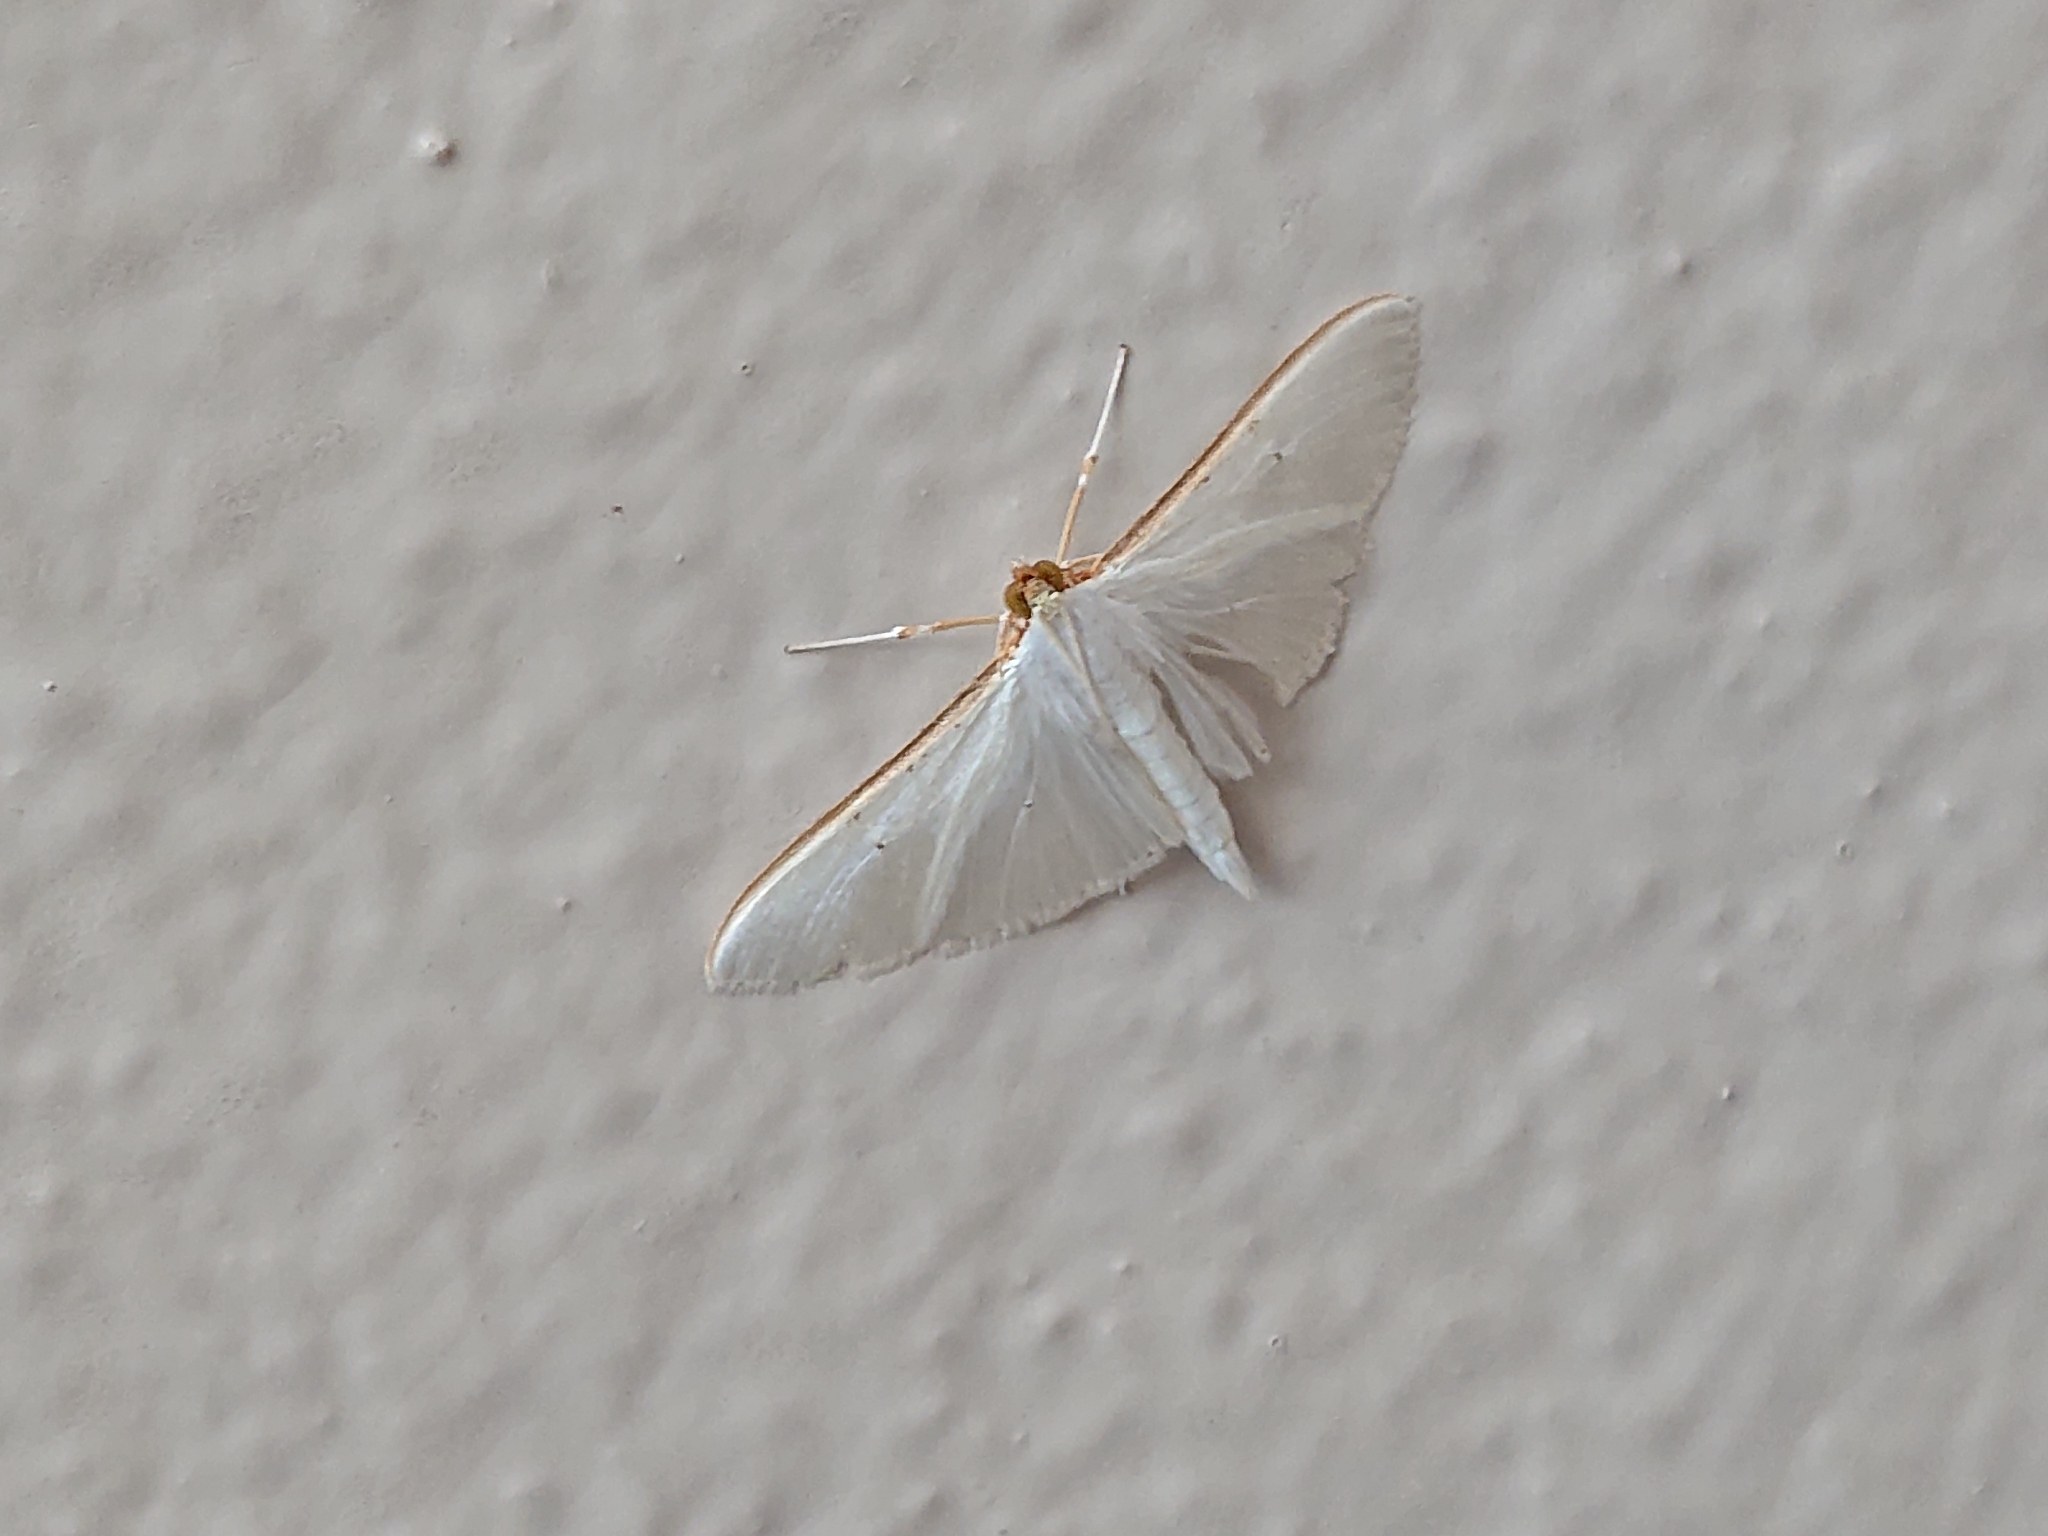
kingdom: Animalia
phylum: Arthropoda
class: Insecta
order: Lepidoptera
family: Crambidae
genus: Palpita
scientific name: Palpita vitrealis
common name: Olive-tree pearl
